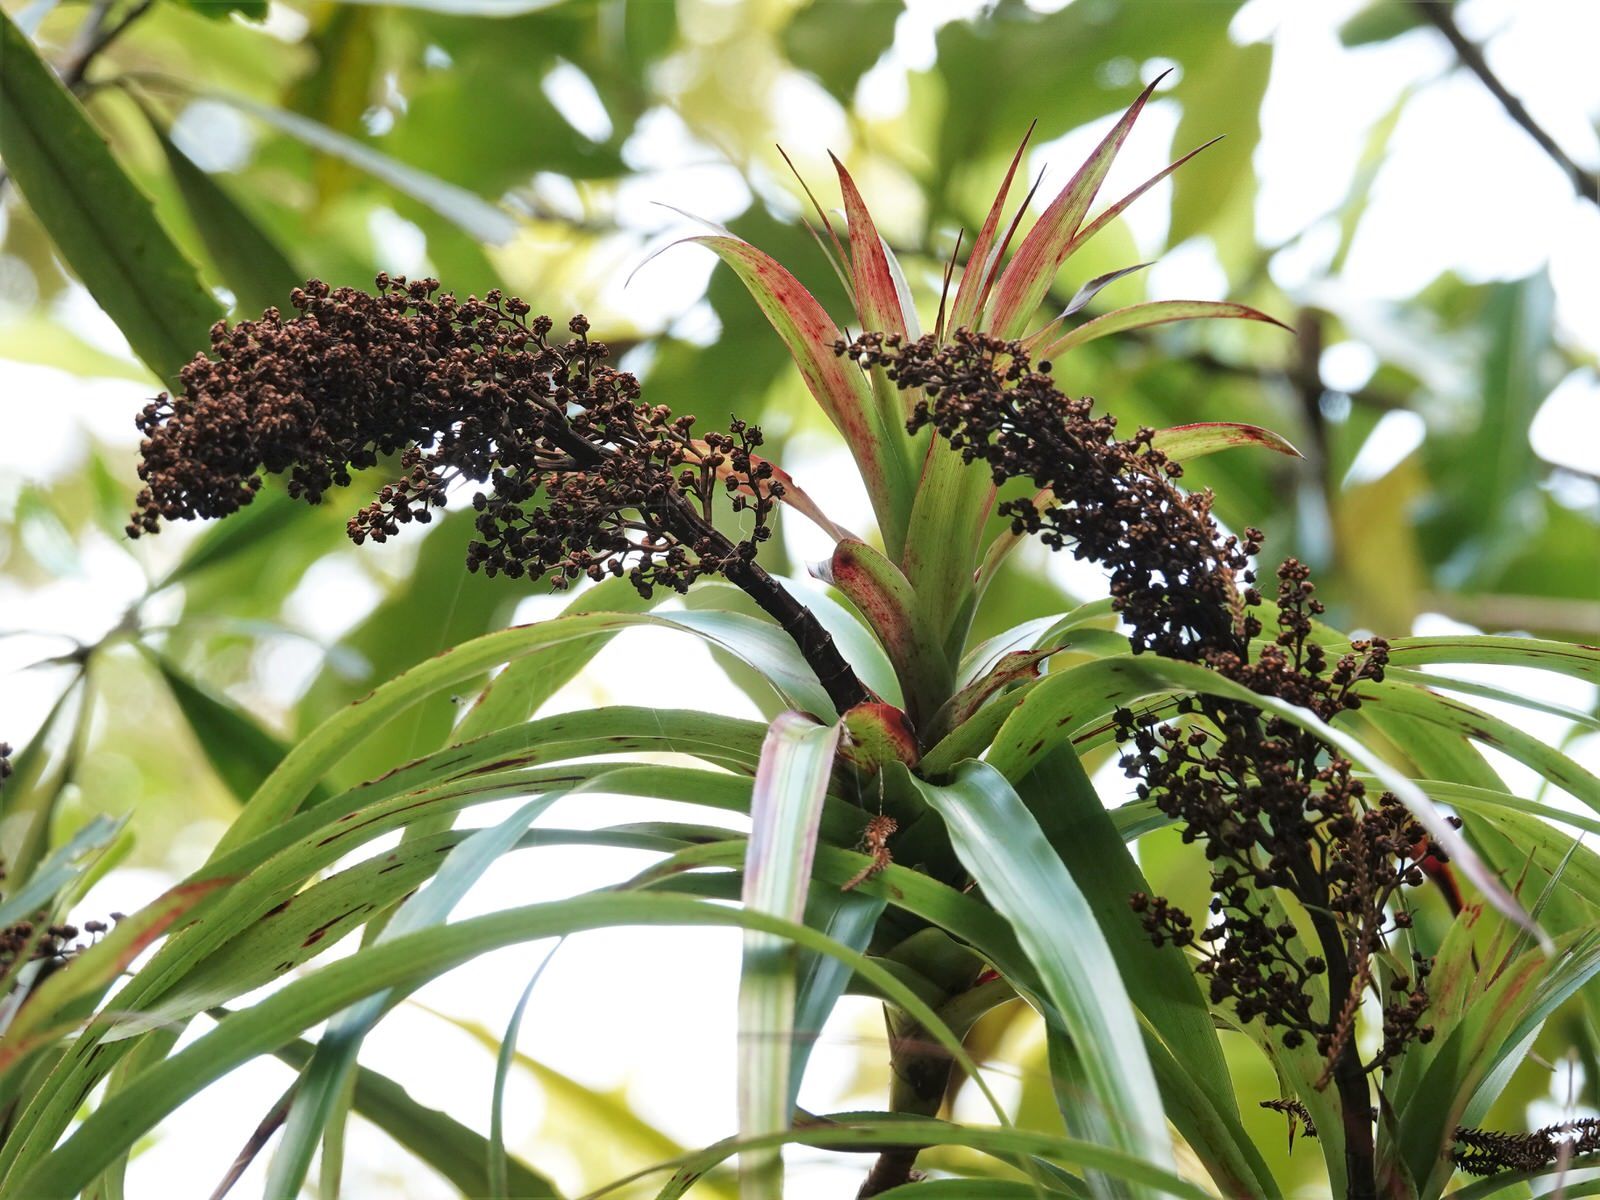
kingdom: Plantae
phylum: Tracheophyta
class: Magnoliopsida
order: Ericales
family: Ericaceae
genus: Dracophyllum
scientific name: Dracophyllum latifolium
